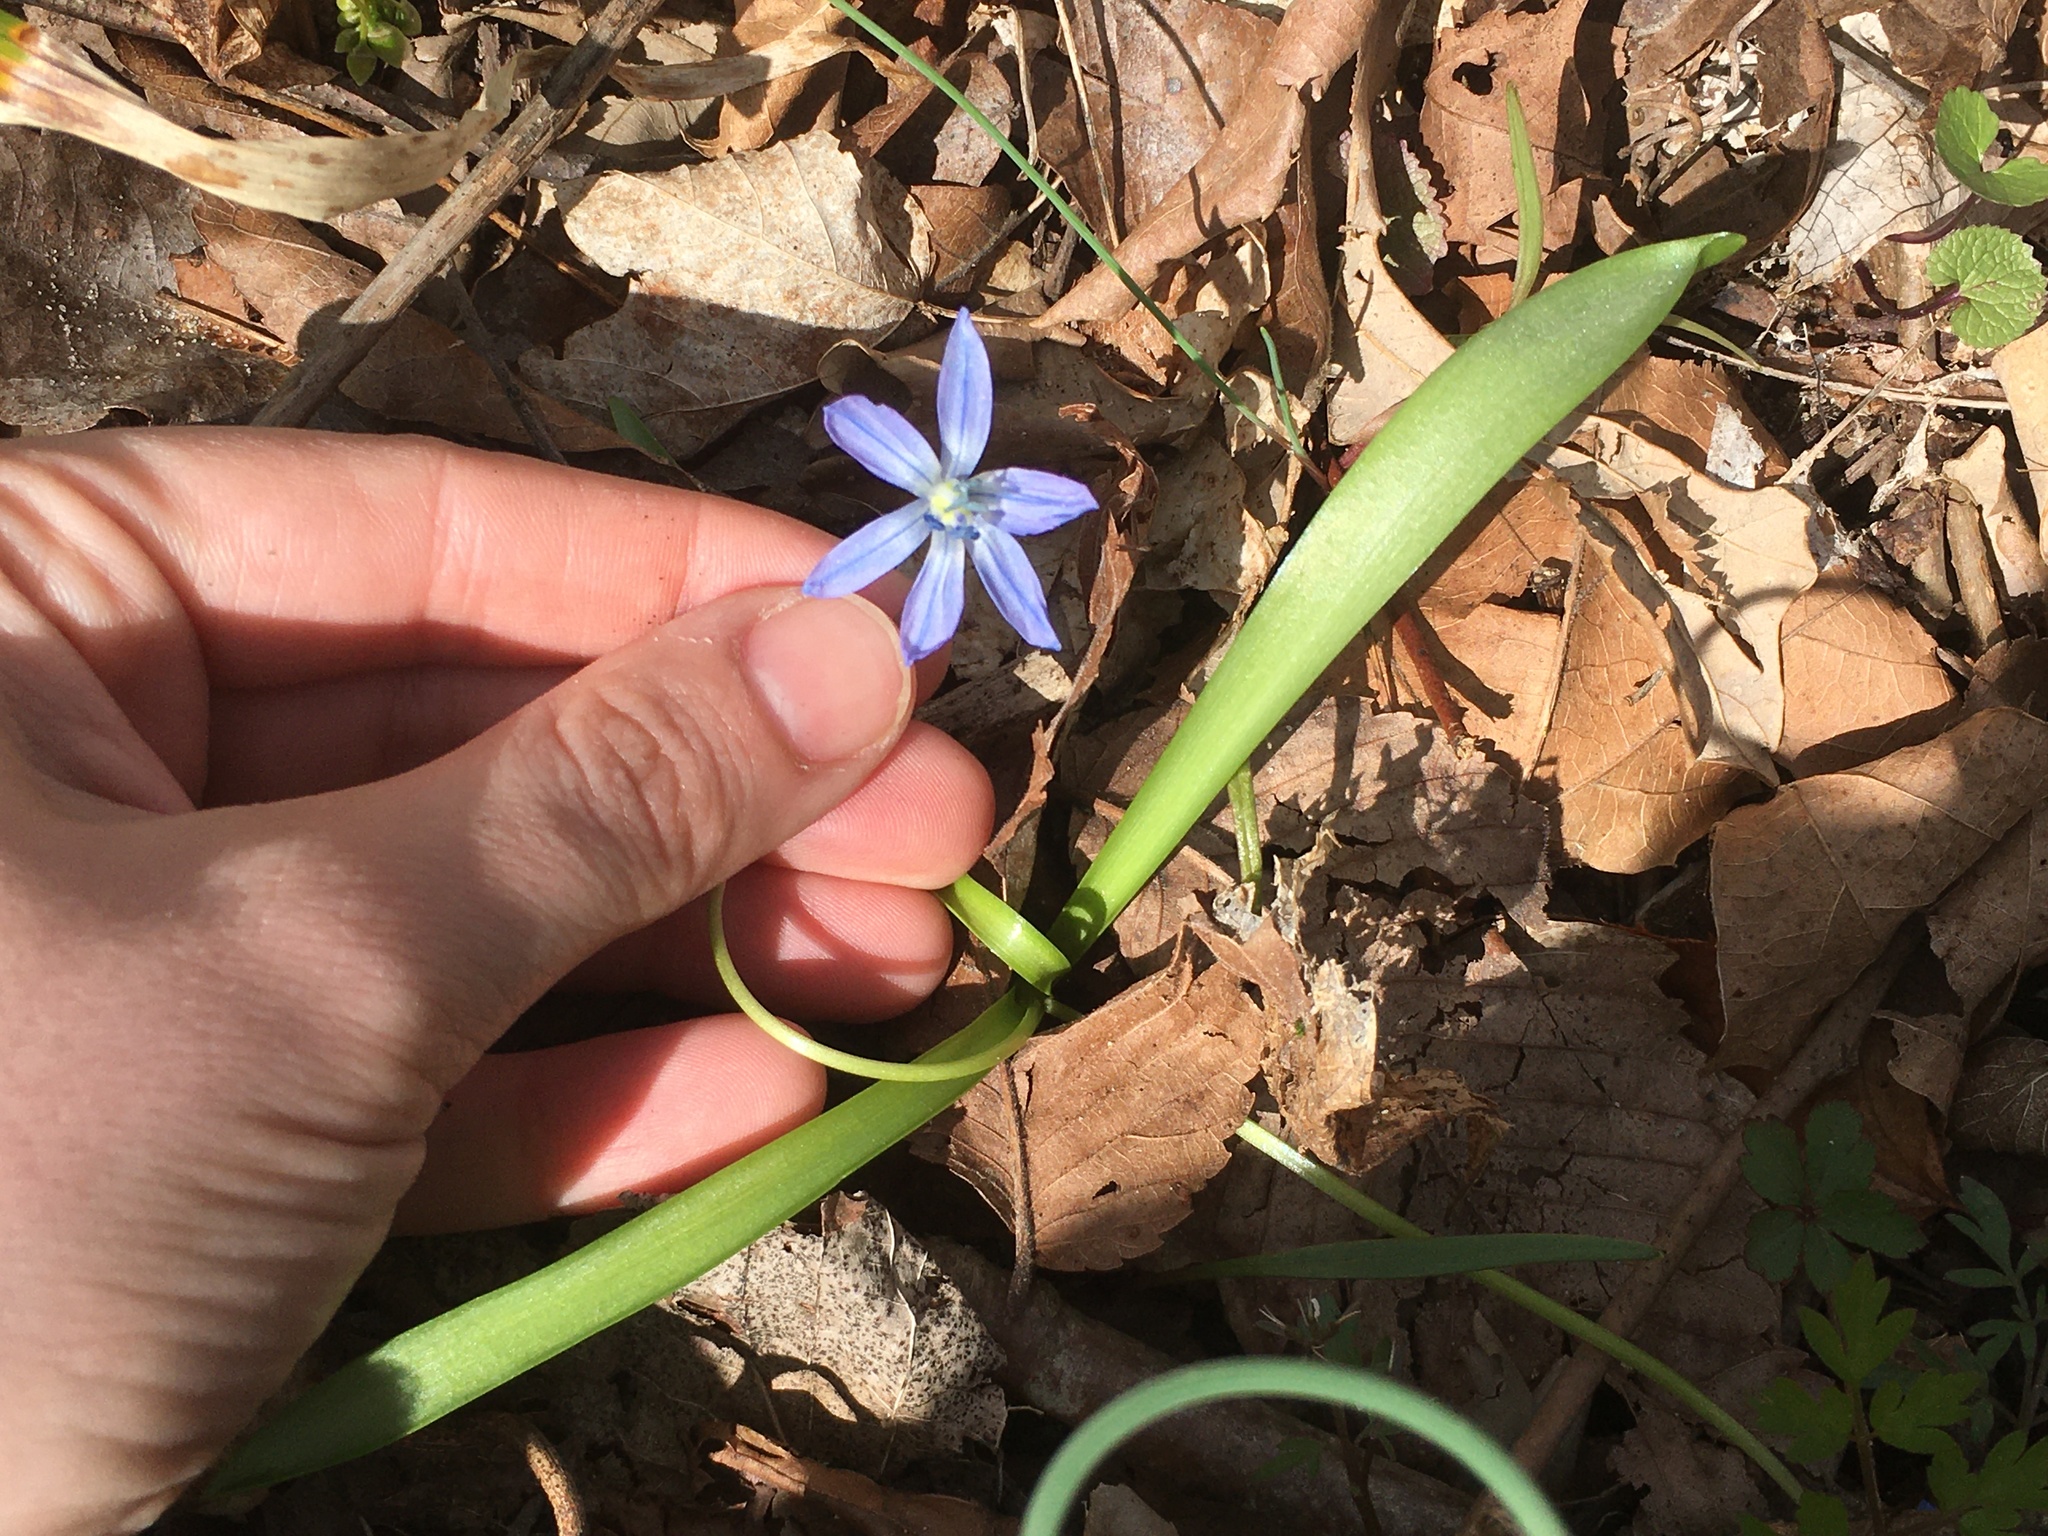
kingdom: Plantae
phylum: Tracheophyta
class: Liliopsida
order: Asparagales
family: Asparagaceae
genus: Scilla
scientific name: Scilla siberica
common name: Siberian squill
